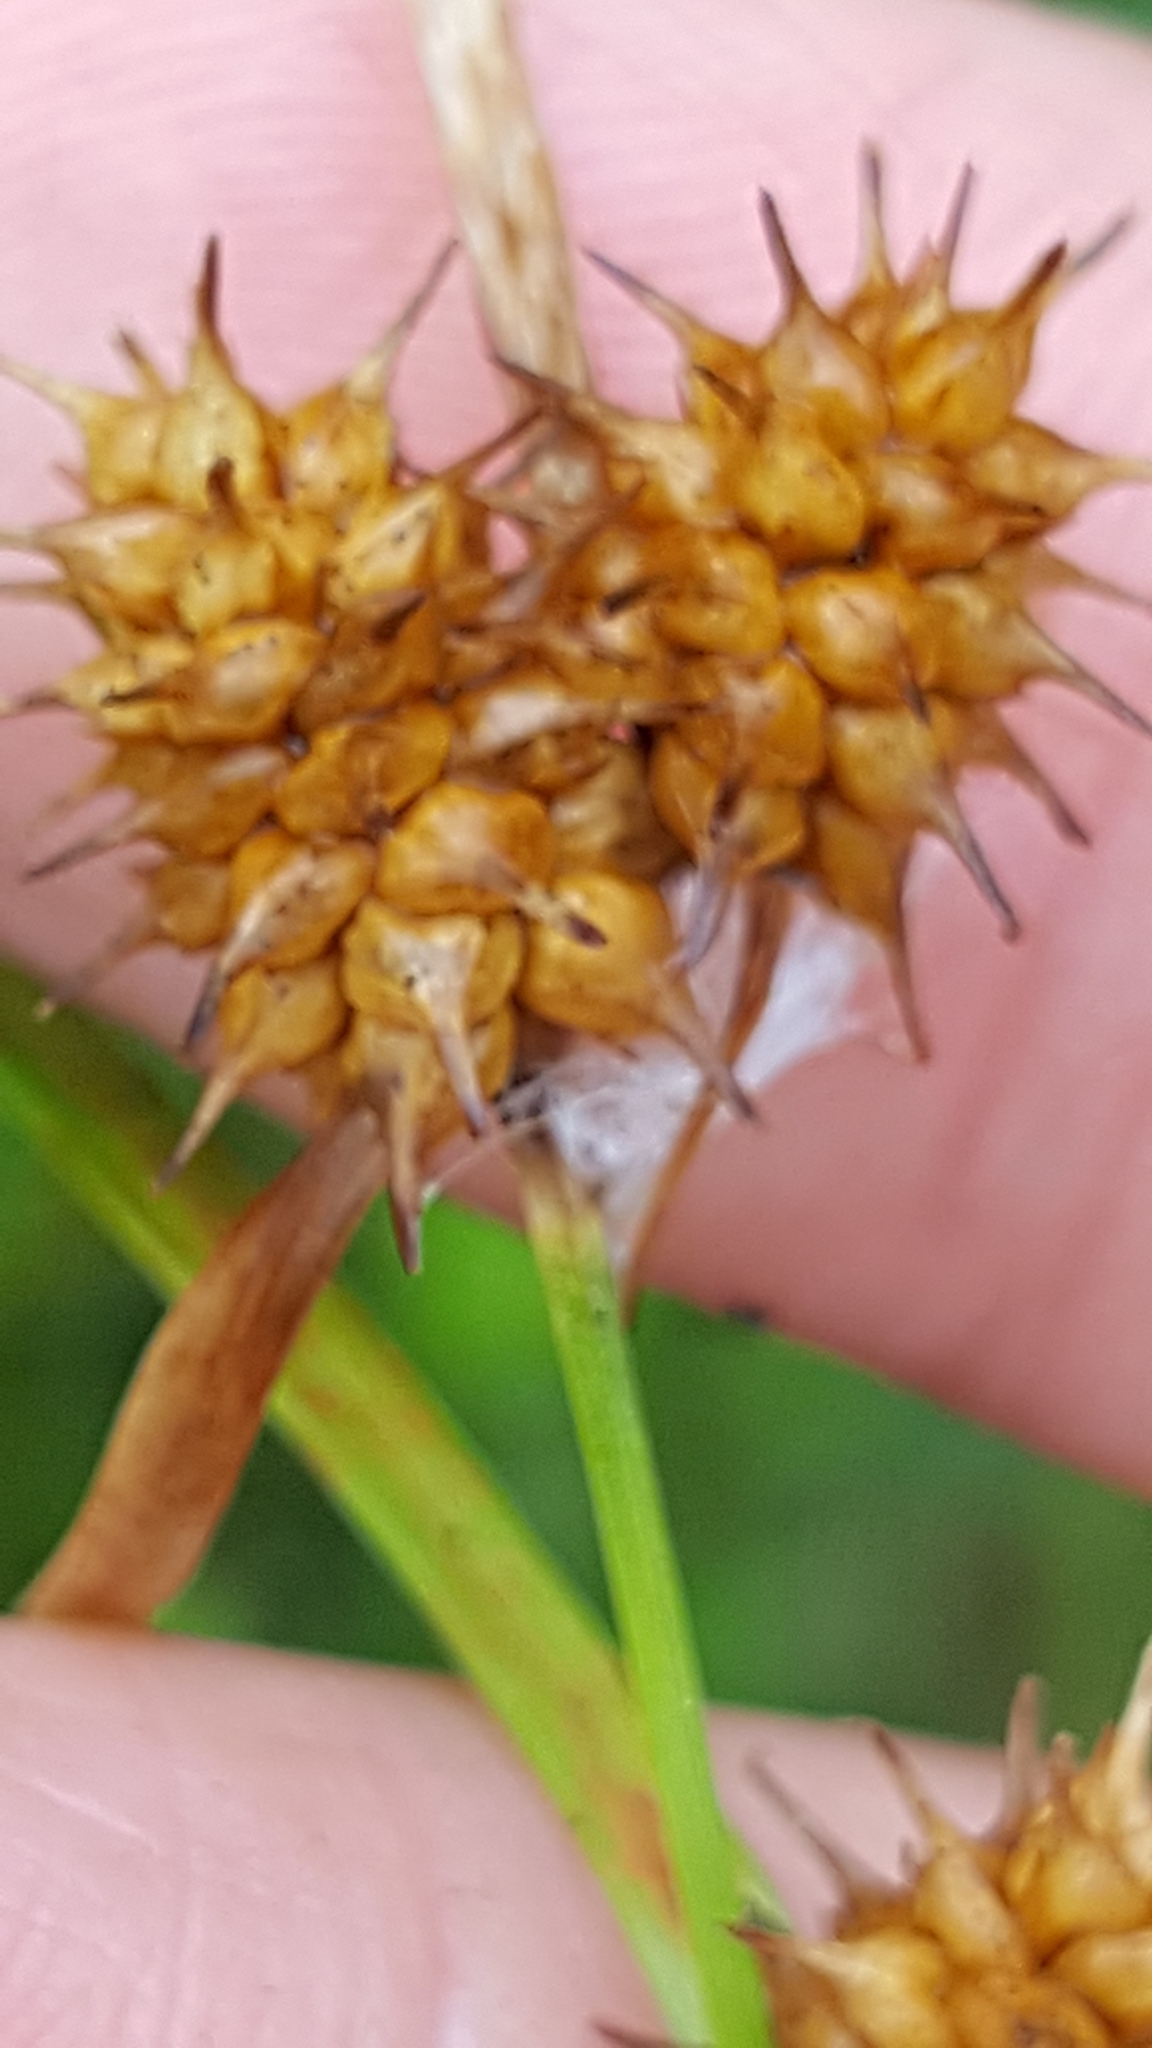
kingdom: Plantae
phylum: Tracheophyta
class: Liliopsida
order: Poales
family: Cyperaceae
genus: Carex
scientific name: Carex flava
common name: Large yellow-sedge
